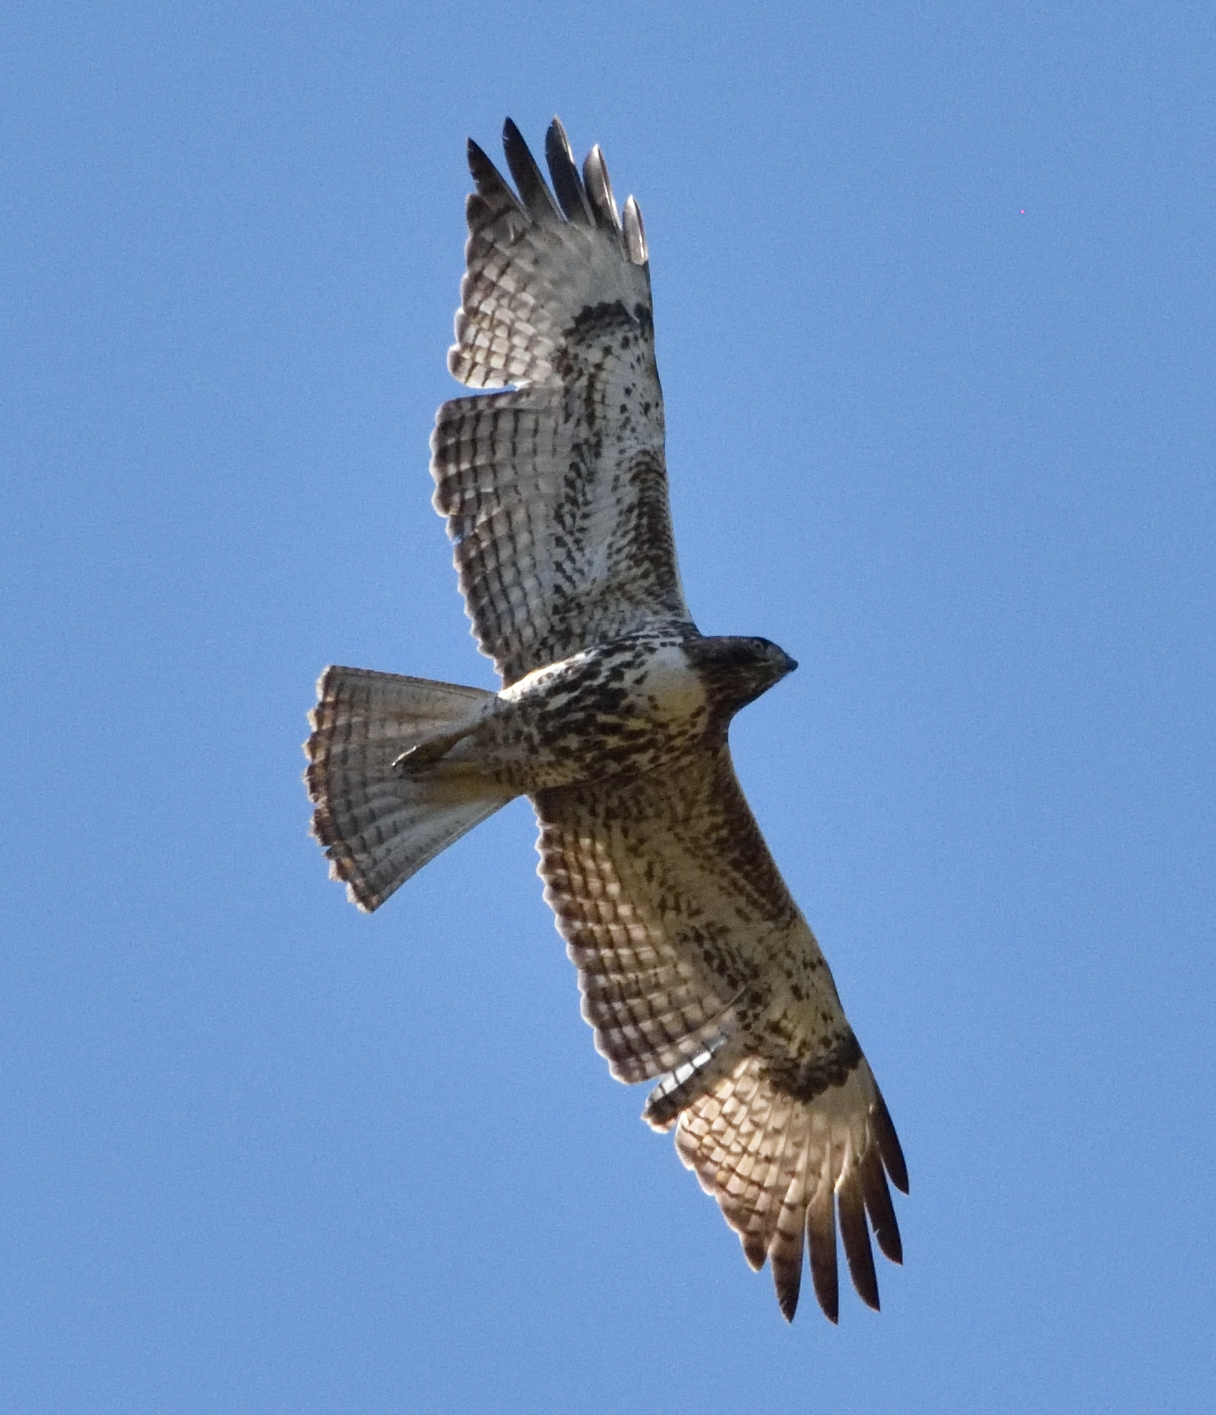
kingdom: Animalia
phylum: Chordata
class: Aves
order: Accipitriformes
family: Accipitridae
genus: Buteo
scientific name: Buteo jamaicensis
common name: Red-tailed hawk
